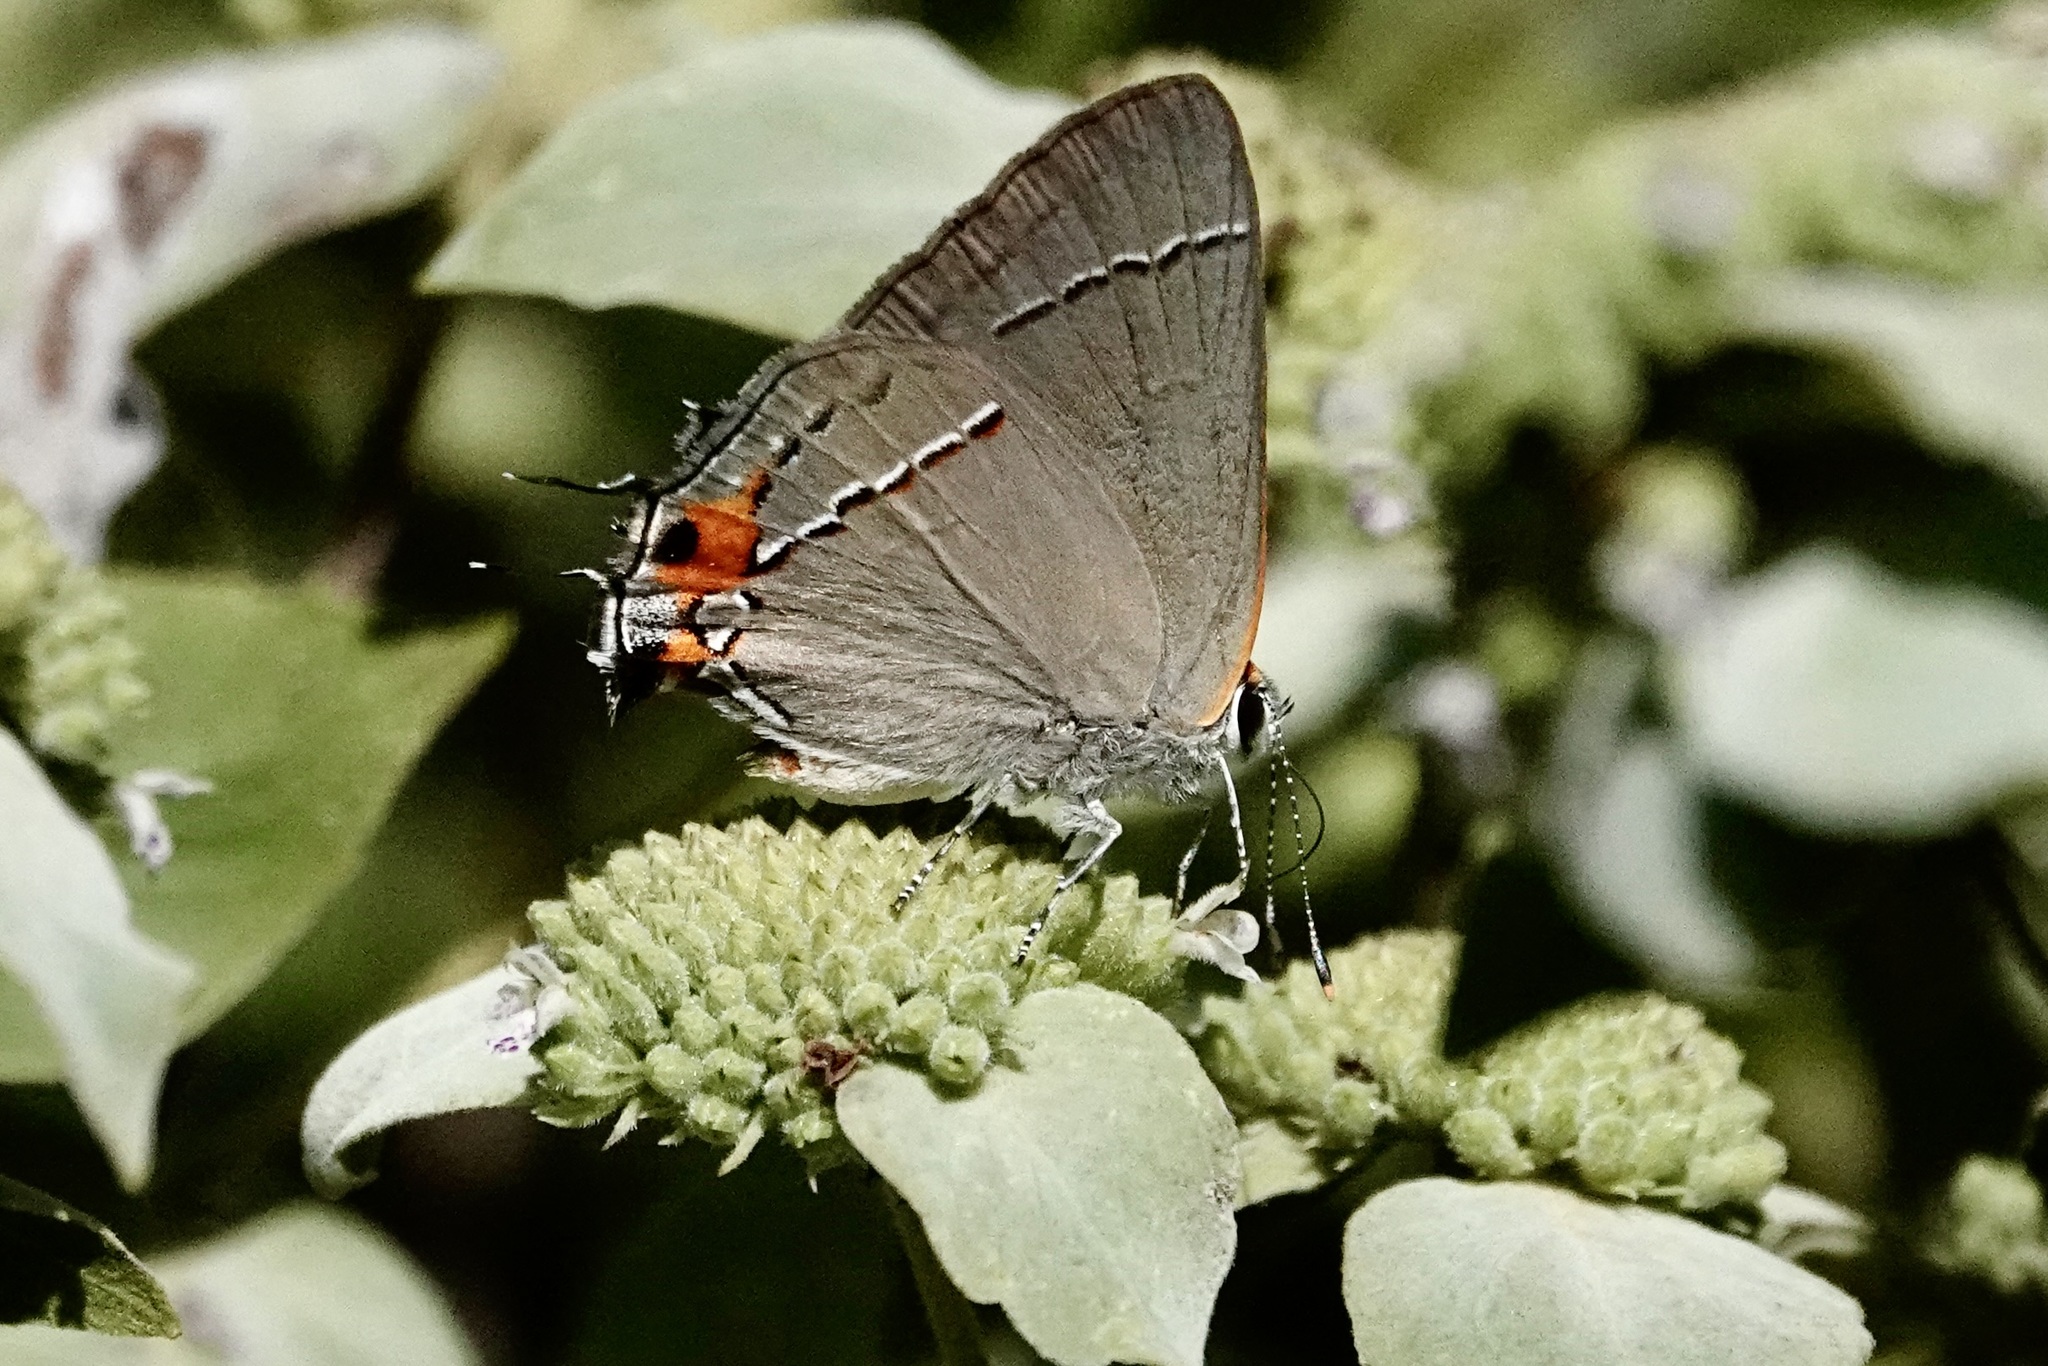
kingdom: Animalia
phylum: Arthropoda
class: Insecta
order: Lepidoptera
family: Lycaenidae
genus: Strymon
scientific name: Strymon melinus
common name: Gray hairstreak
